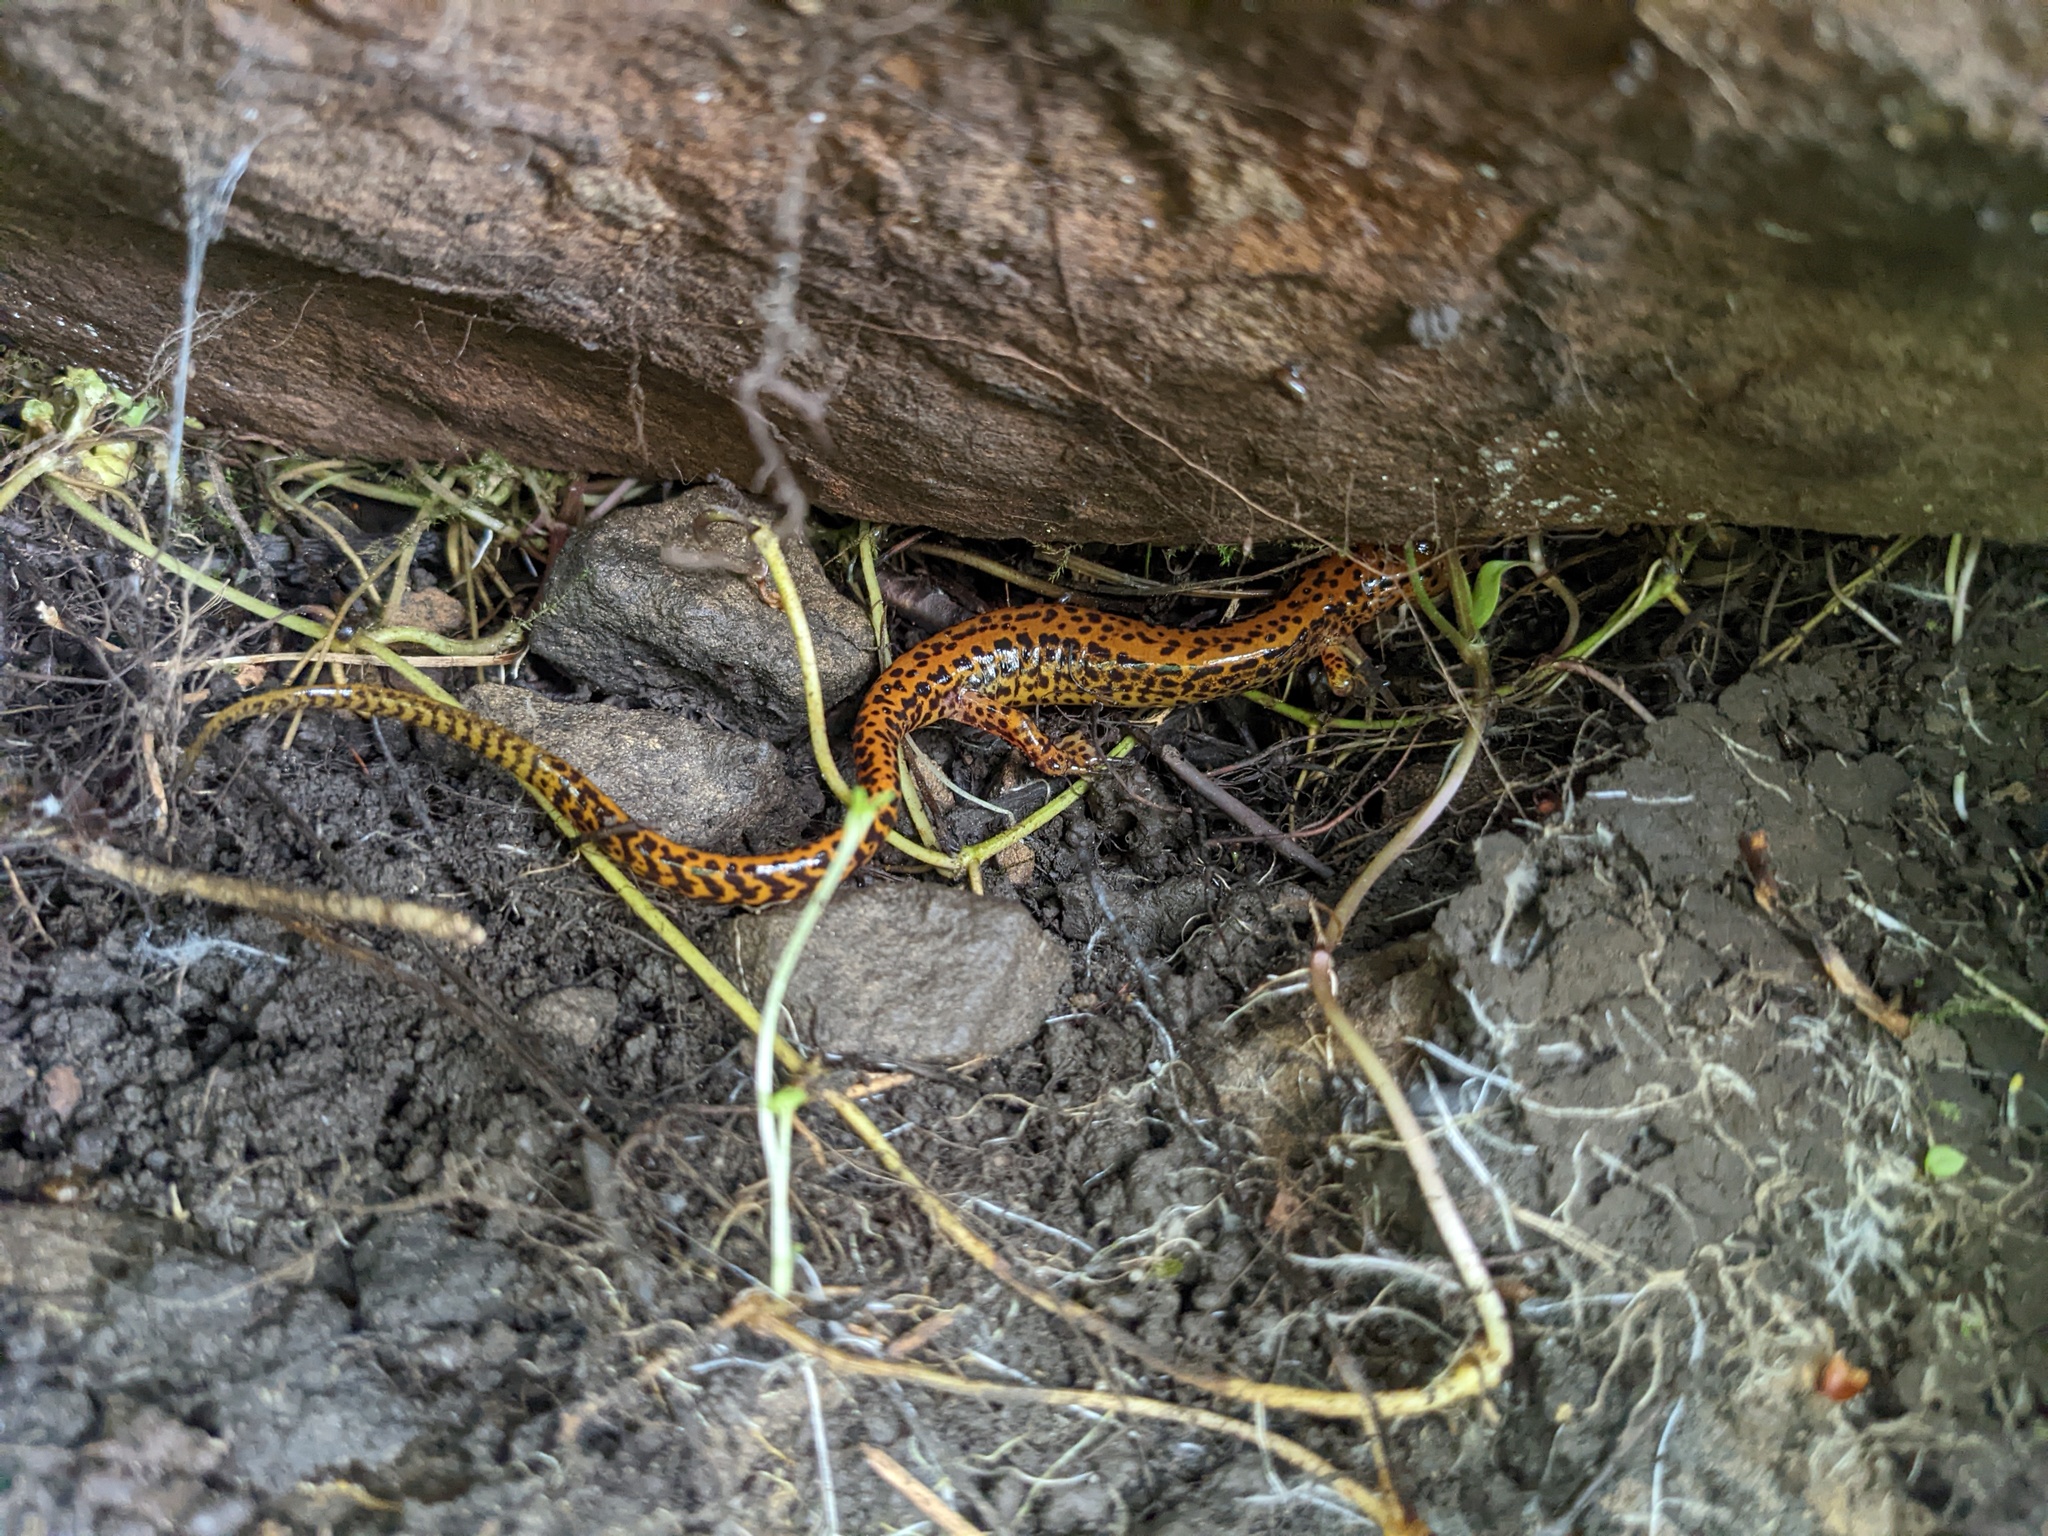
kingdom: Animalia
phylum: Chordata
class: Amphibia
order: Caudata
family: Plethodontidae
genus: Eurycea
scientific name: Eurycea longicauda
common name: Long-tailed salamander
